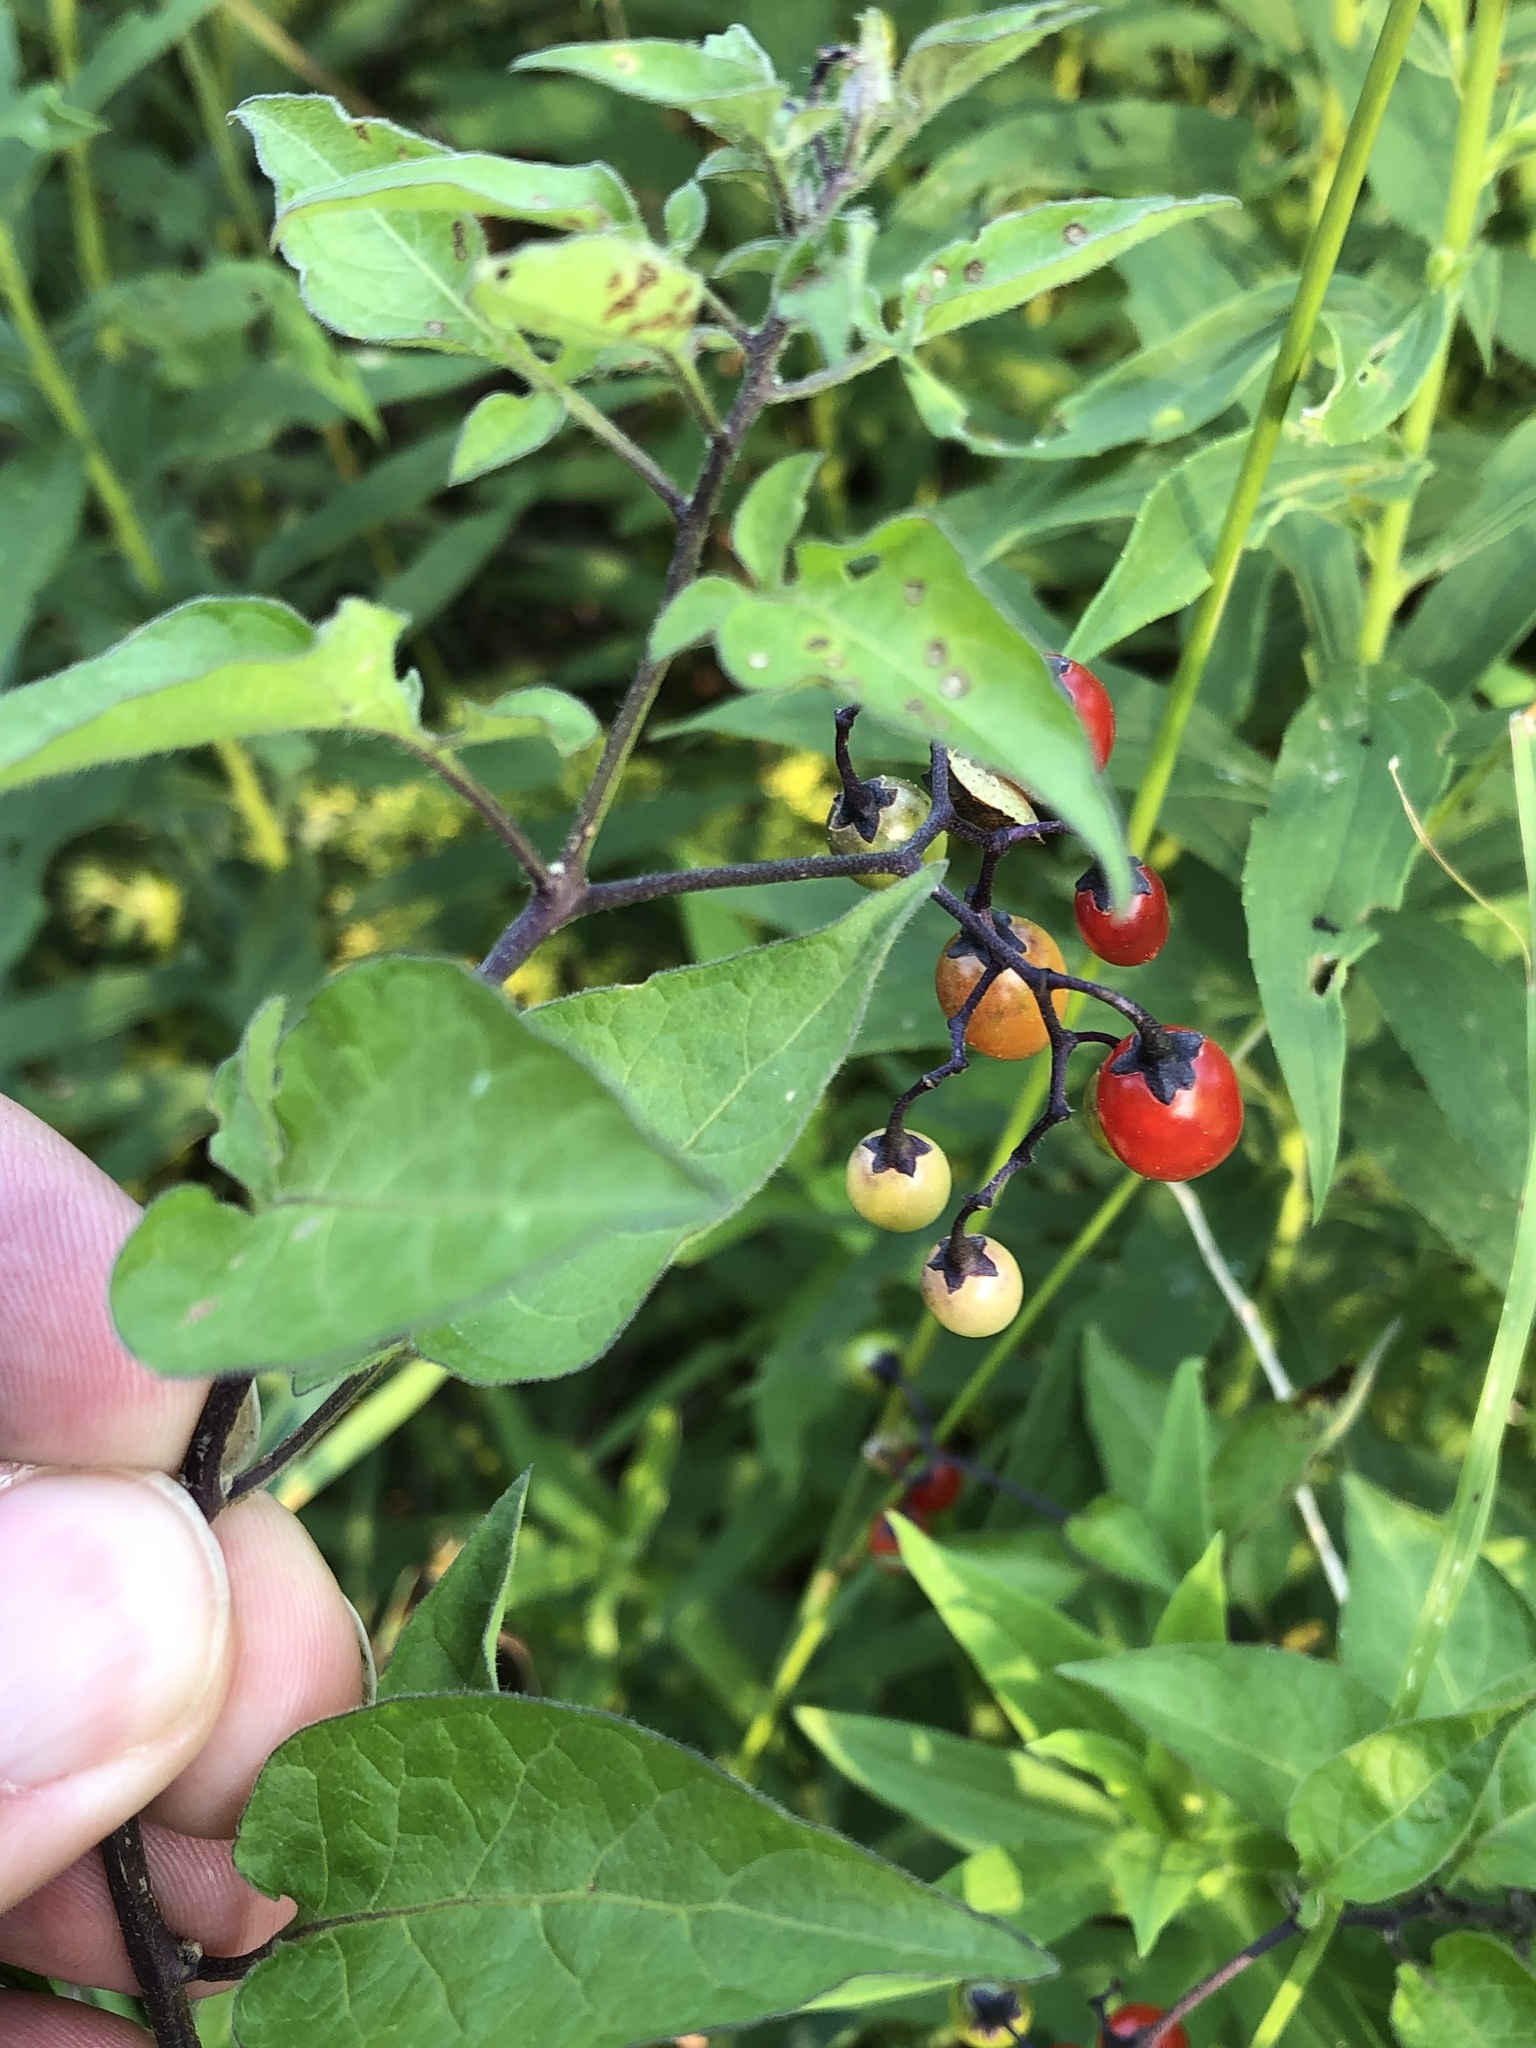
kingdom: Plantae
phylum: Tracheophyta
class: Magnoliopsida
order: Solanales
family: Solanaceae
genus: Solanum
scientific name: Solanum dulcamara
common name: Climbing nightshade
